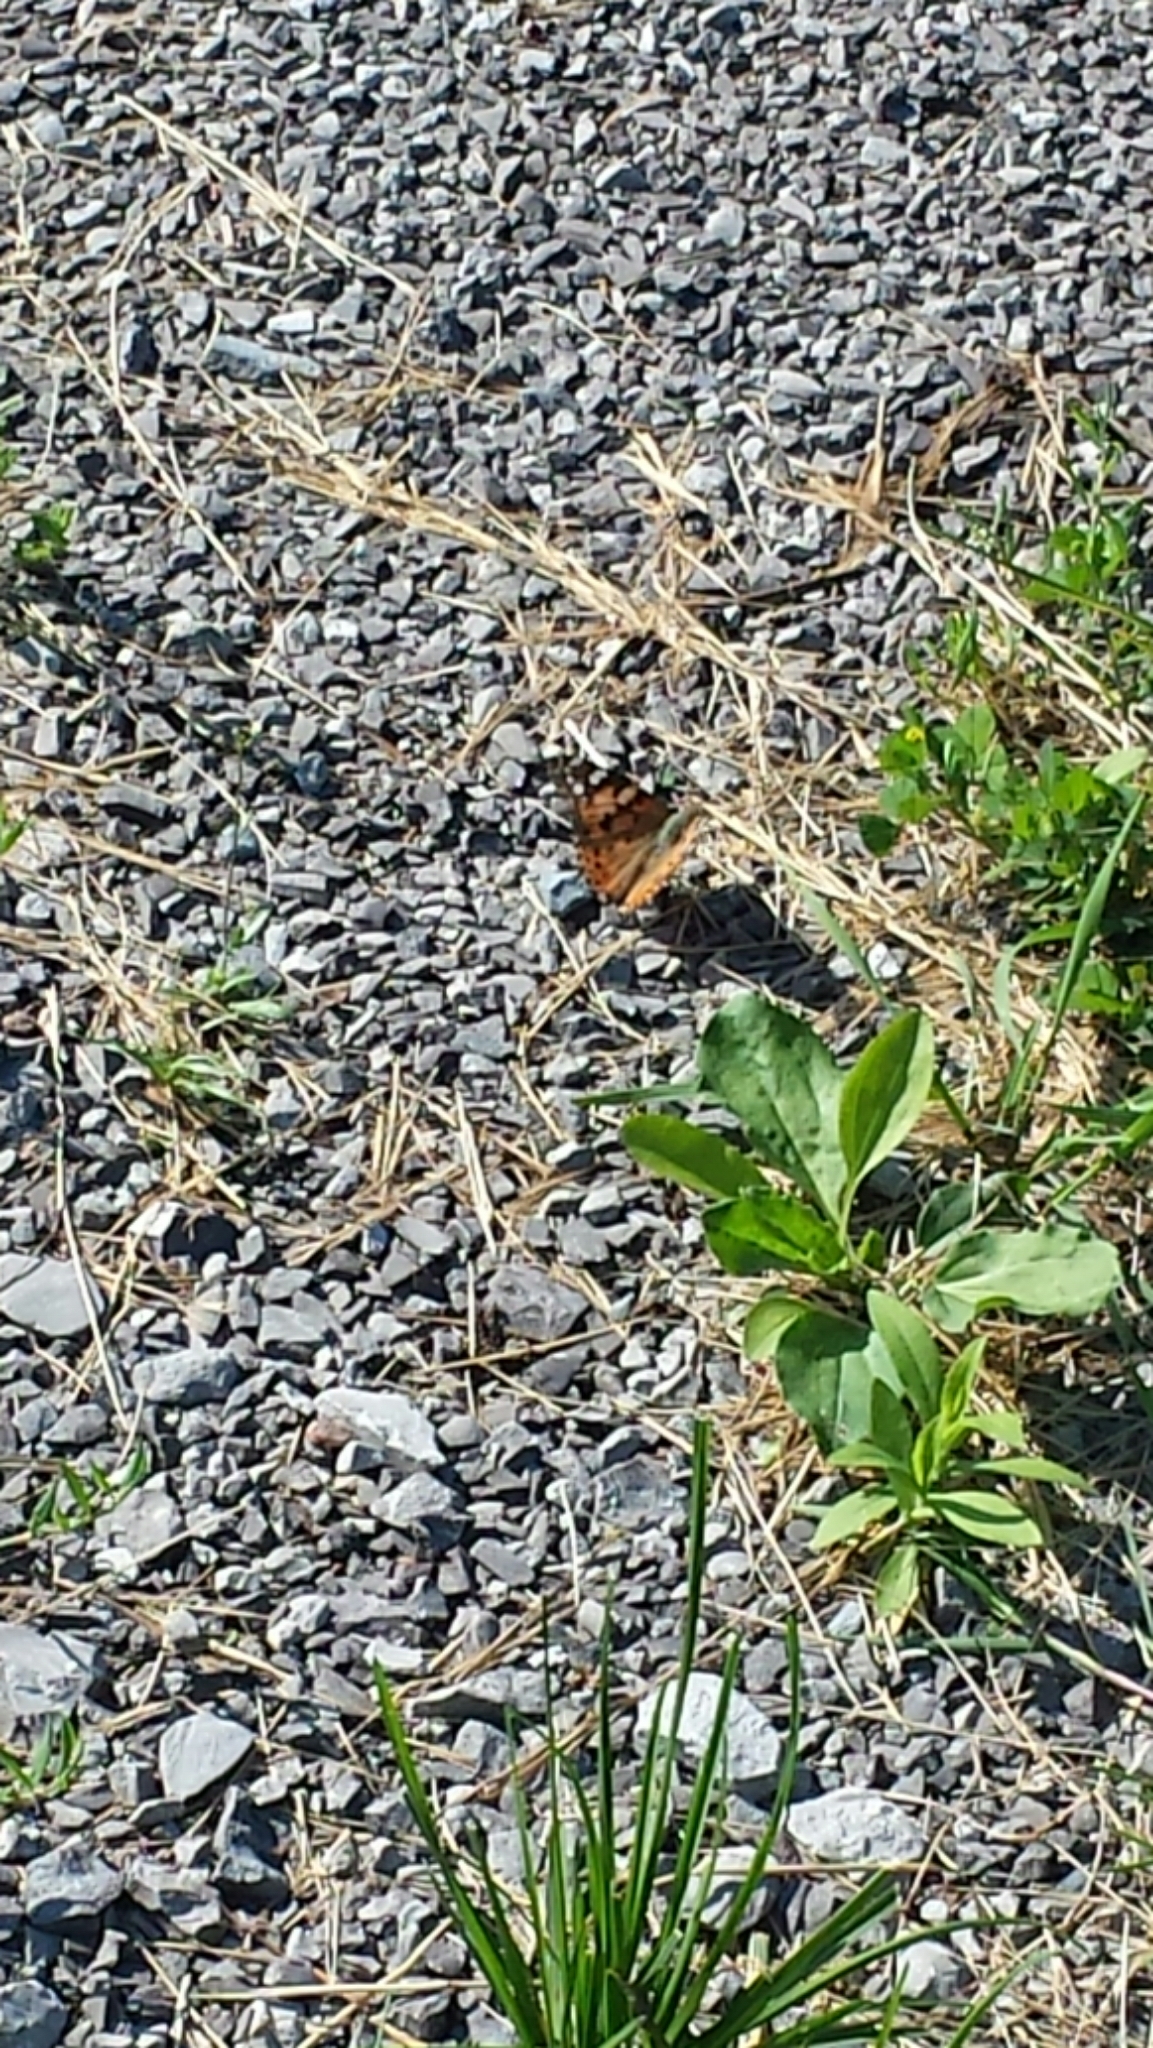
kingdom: Animalia
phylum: Arthropoda
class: Insecta
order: Lepidoptera
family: Nymphalidae
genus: Vanessa
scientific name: Vanessa cardui
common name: Painted lady
